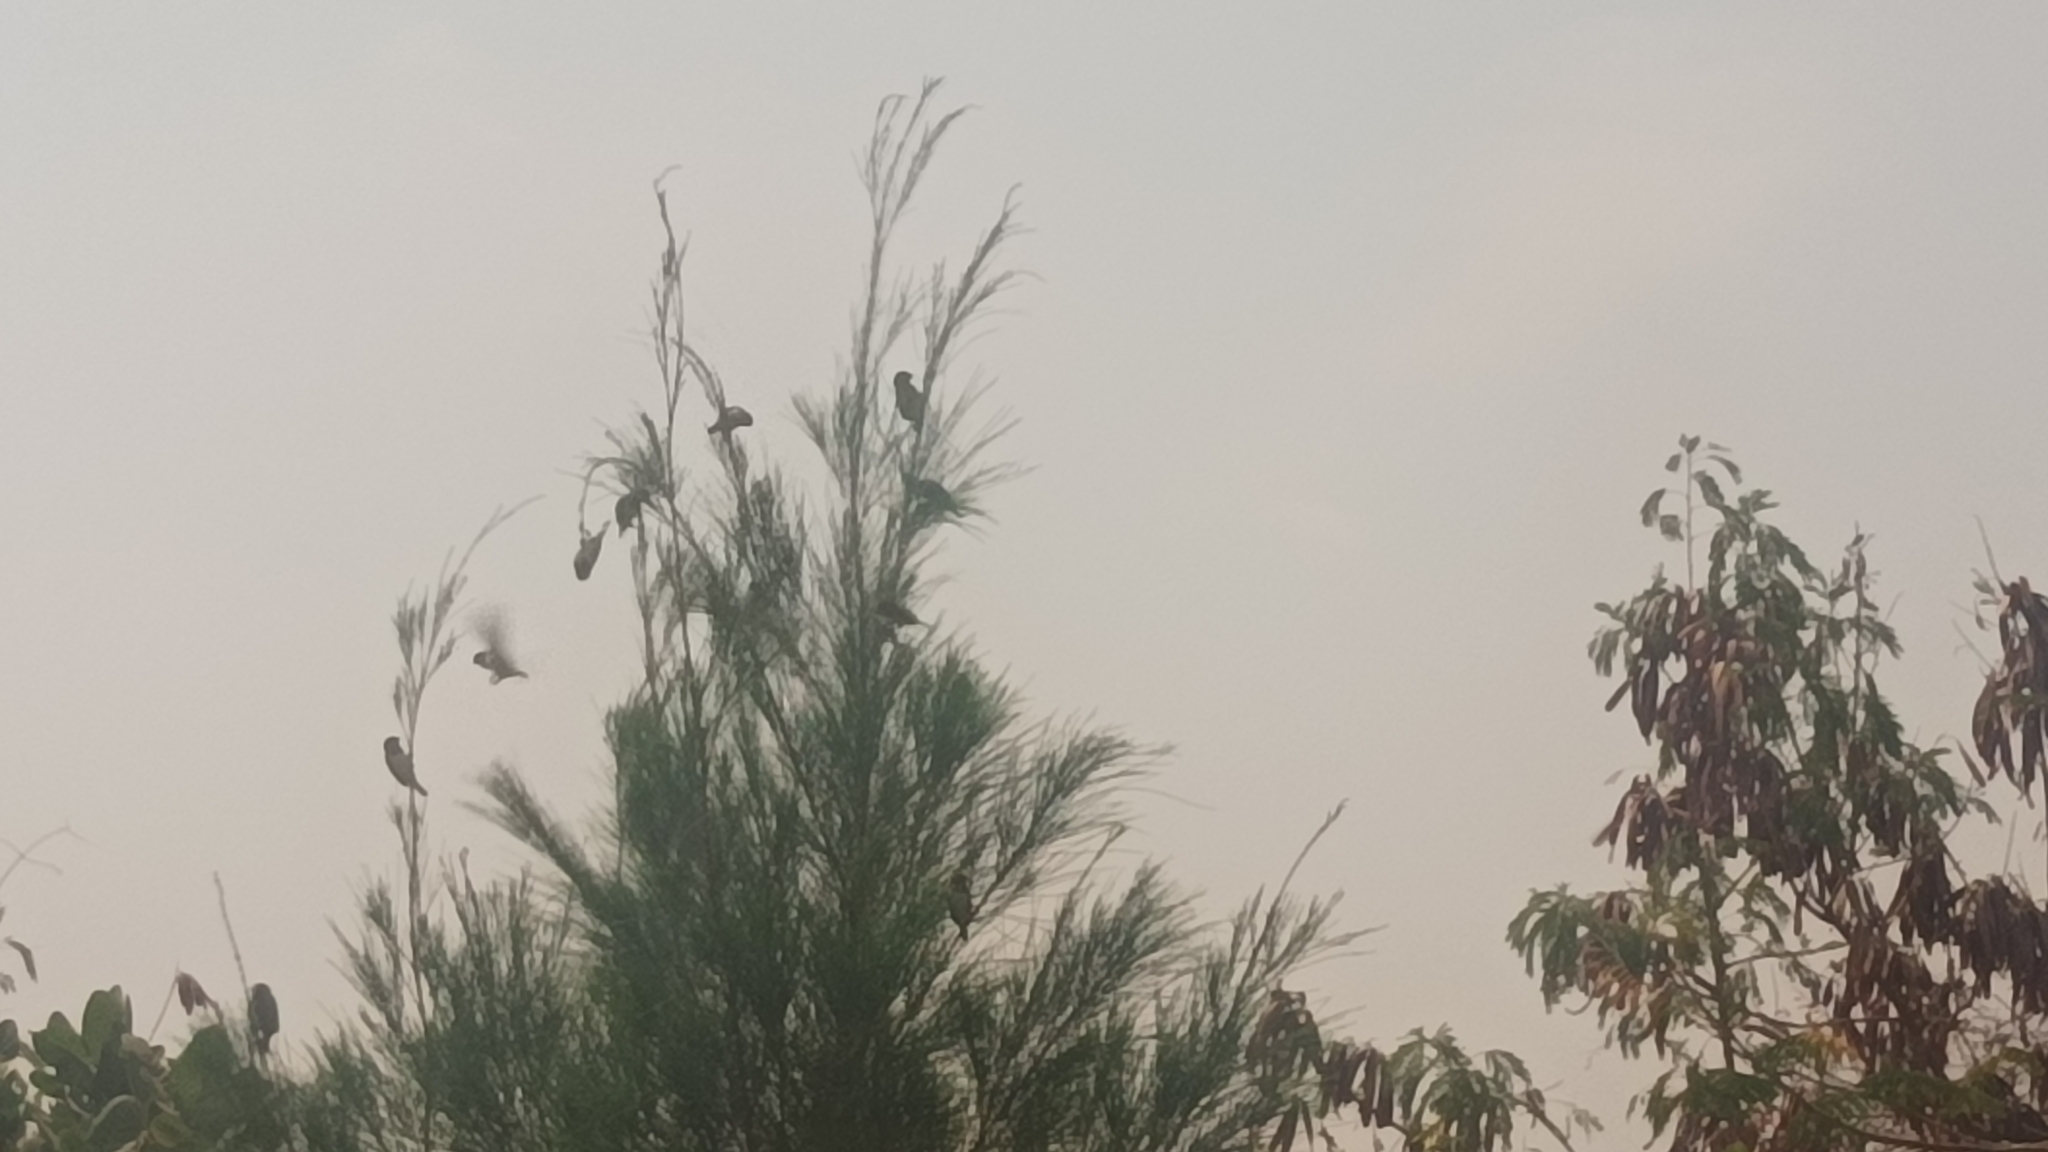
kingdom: Animalia
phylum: Chordata
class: Aves
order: Passeriformes
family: Estrildidae
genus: Lonchura
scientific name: Lonchura cucullata
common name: Bronze mannikin
